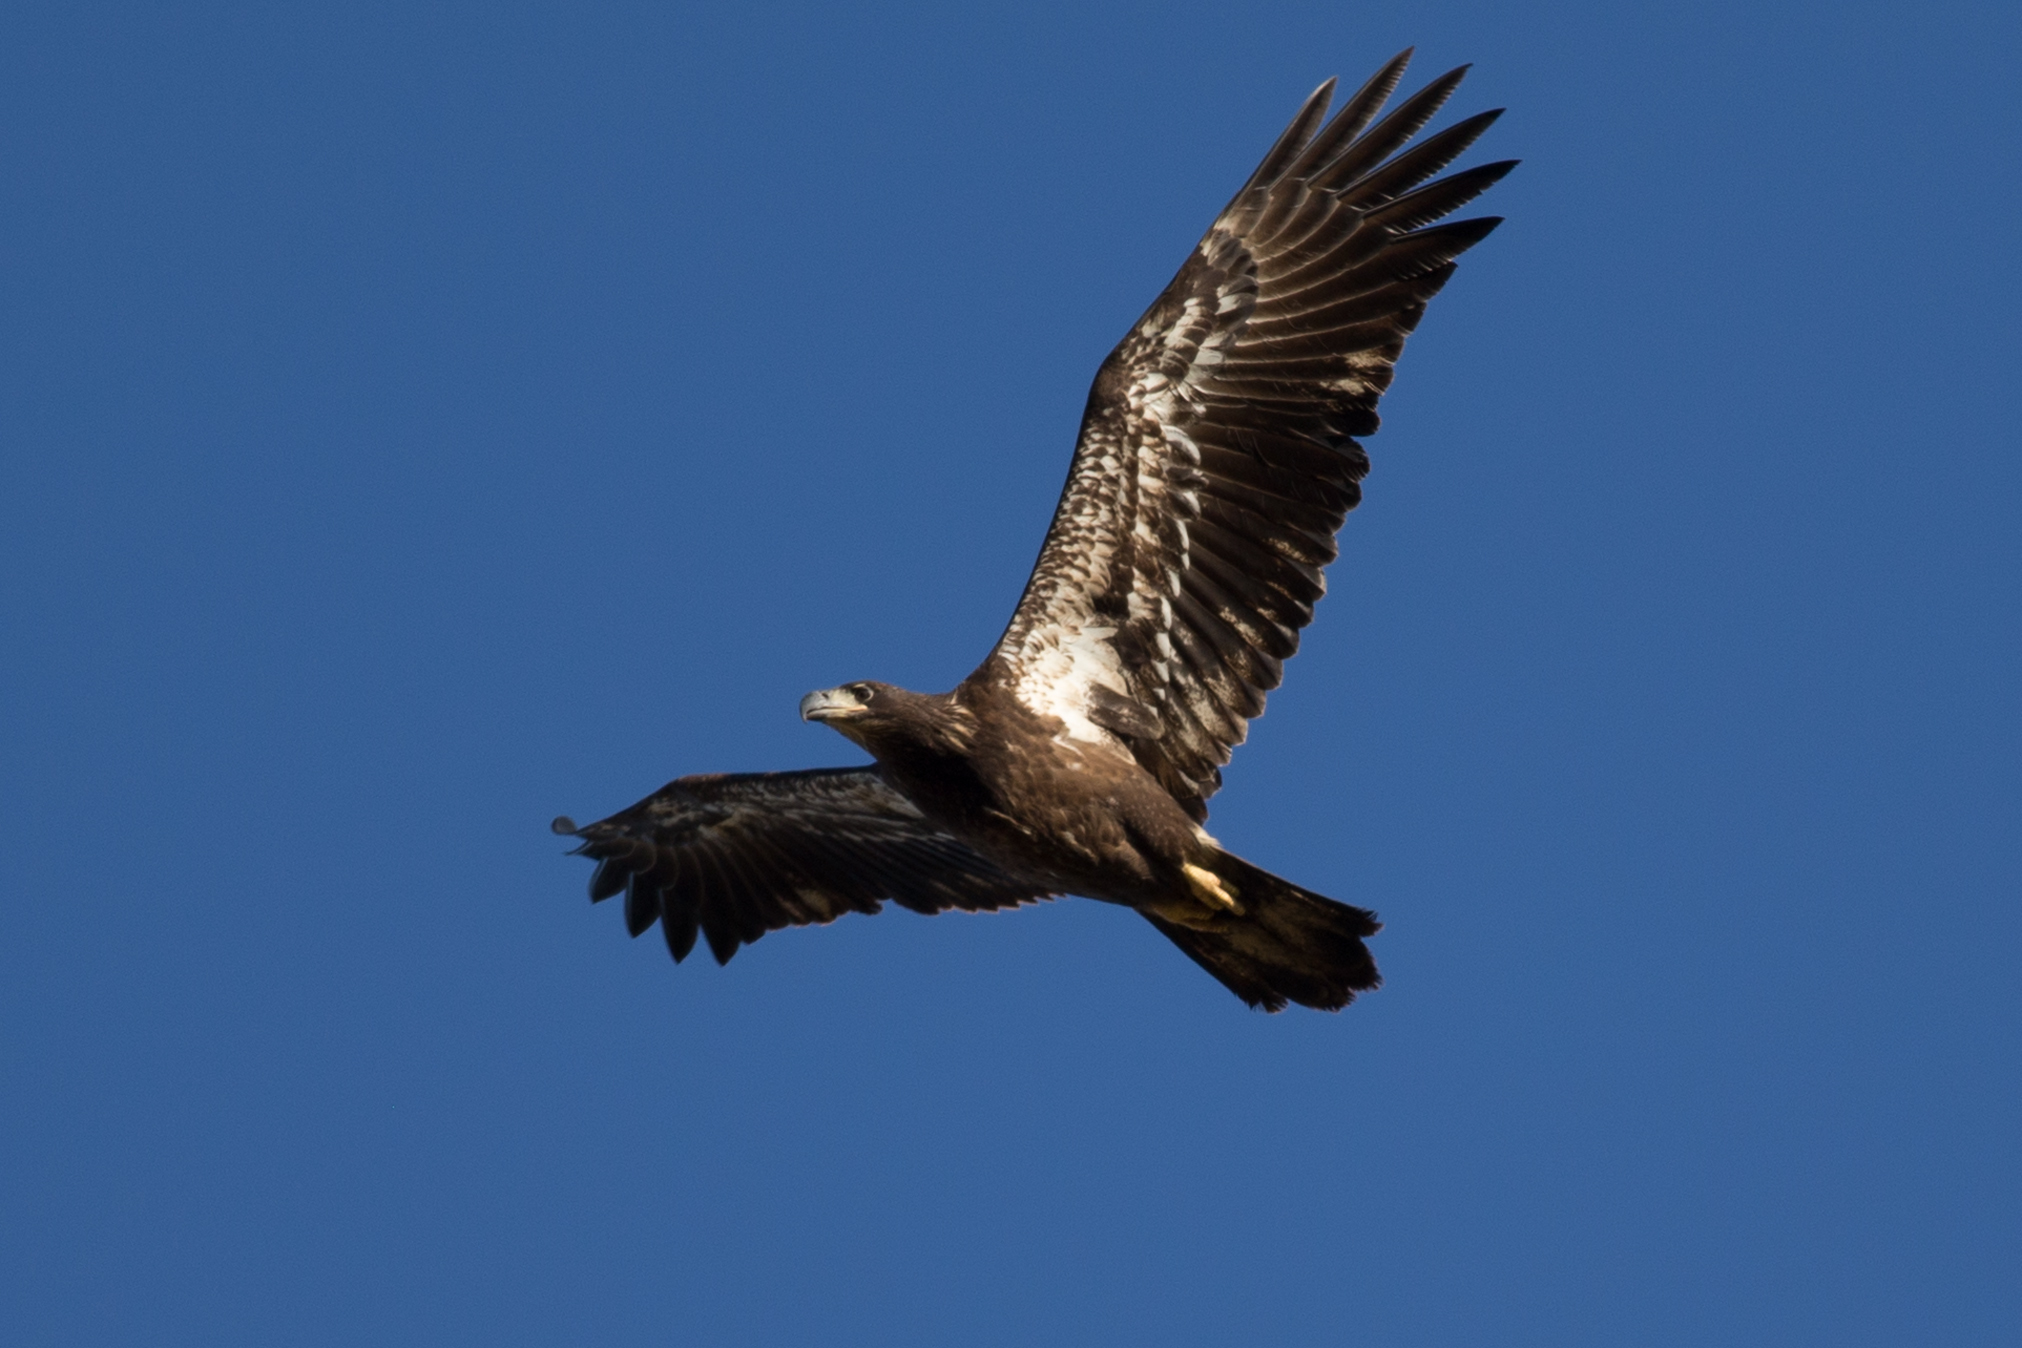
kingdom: Animalia
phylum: Chordata
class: Aves
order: Accipitriformes
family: Accipitridae
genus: Haliaeetus
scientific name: Haliaeetus leucocephalus
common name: Bald eagle
